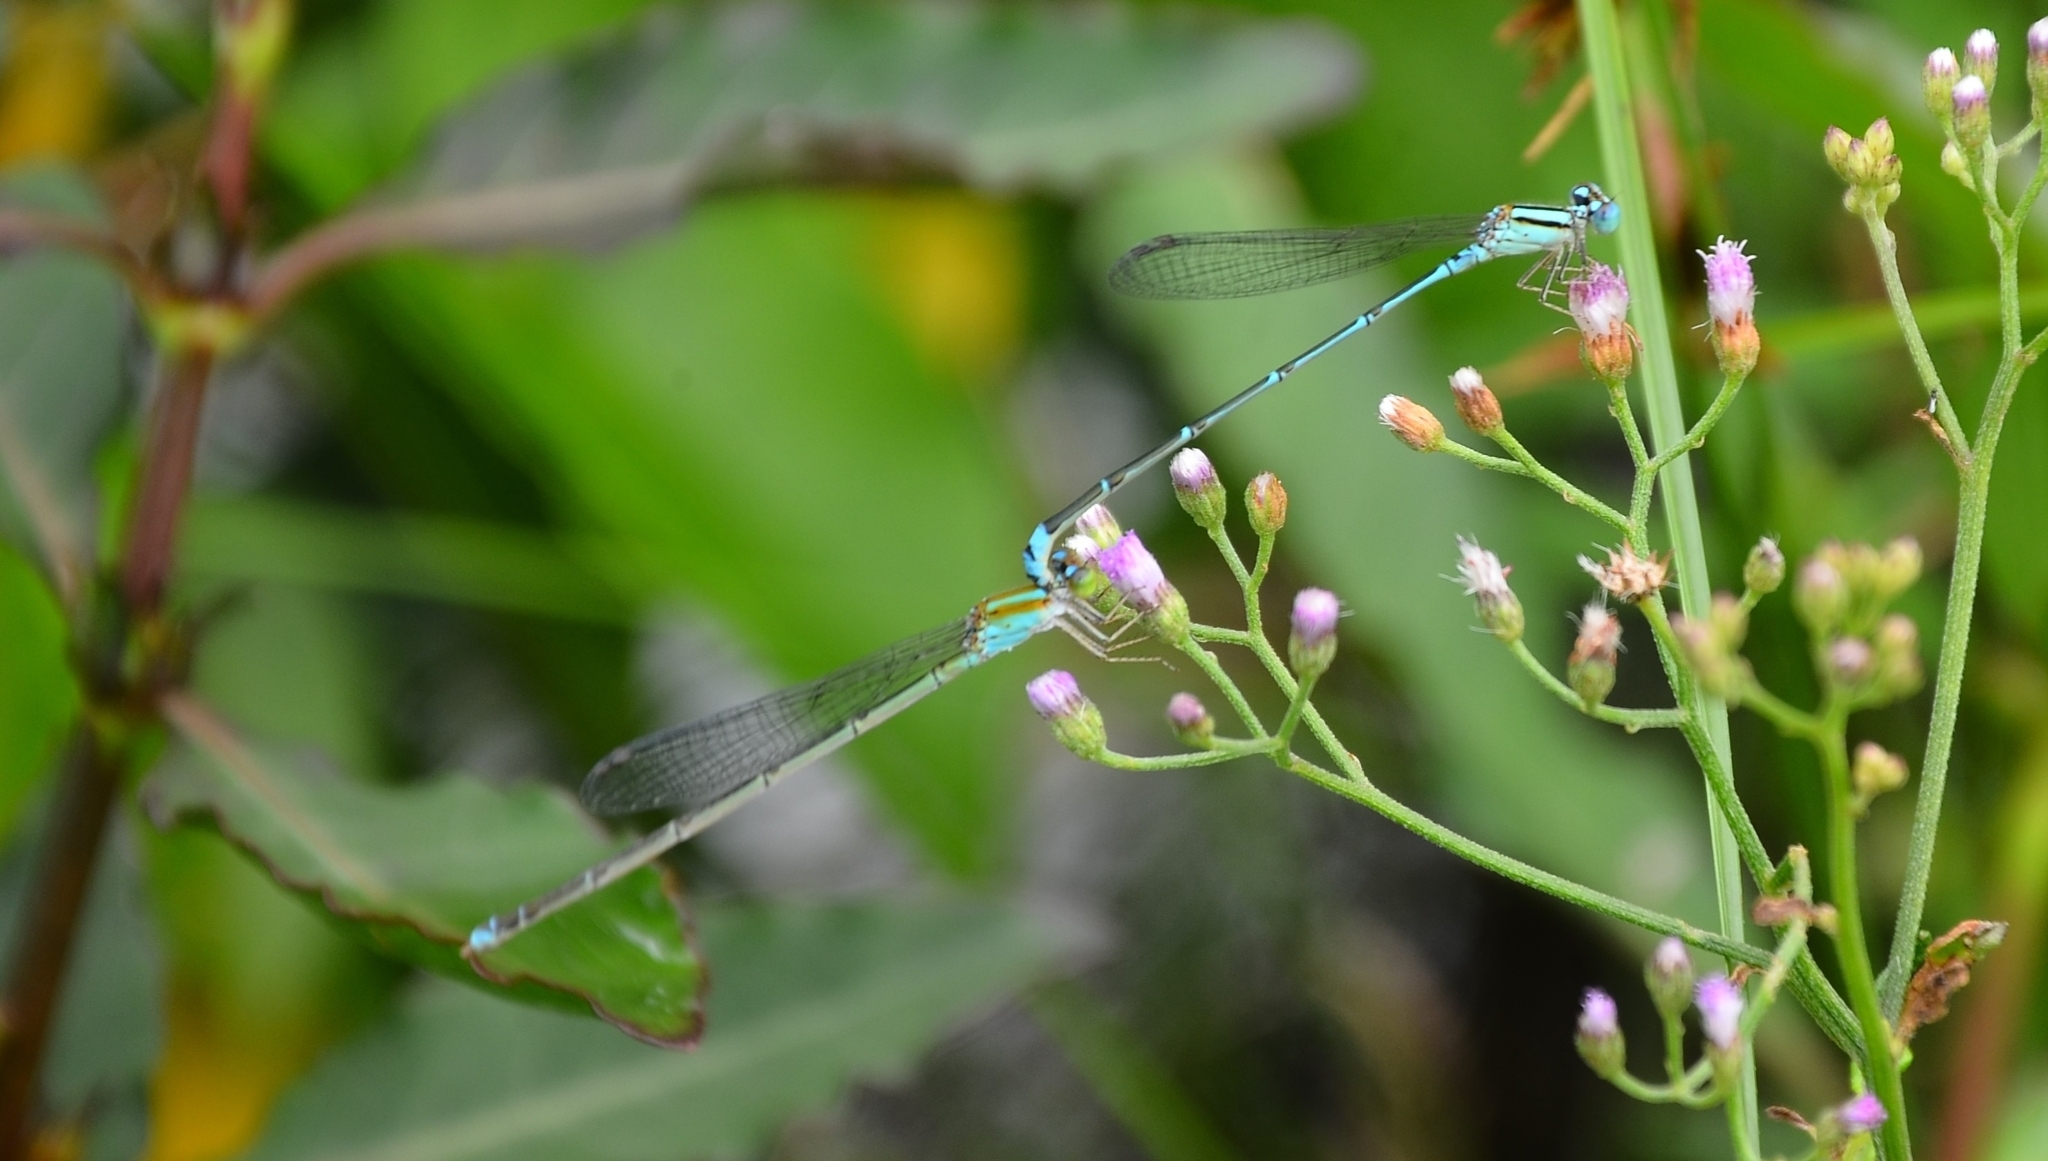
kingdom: Animalia
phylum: Arthropoda
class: Insecta
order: Odonata
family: Coenagrionidae
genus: Pseudagrion
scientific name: Pseudagrion microcephalum
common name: Blue riverdamsel
